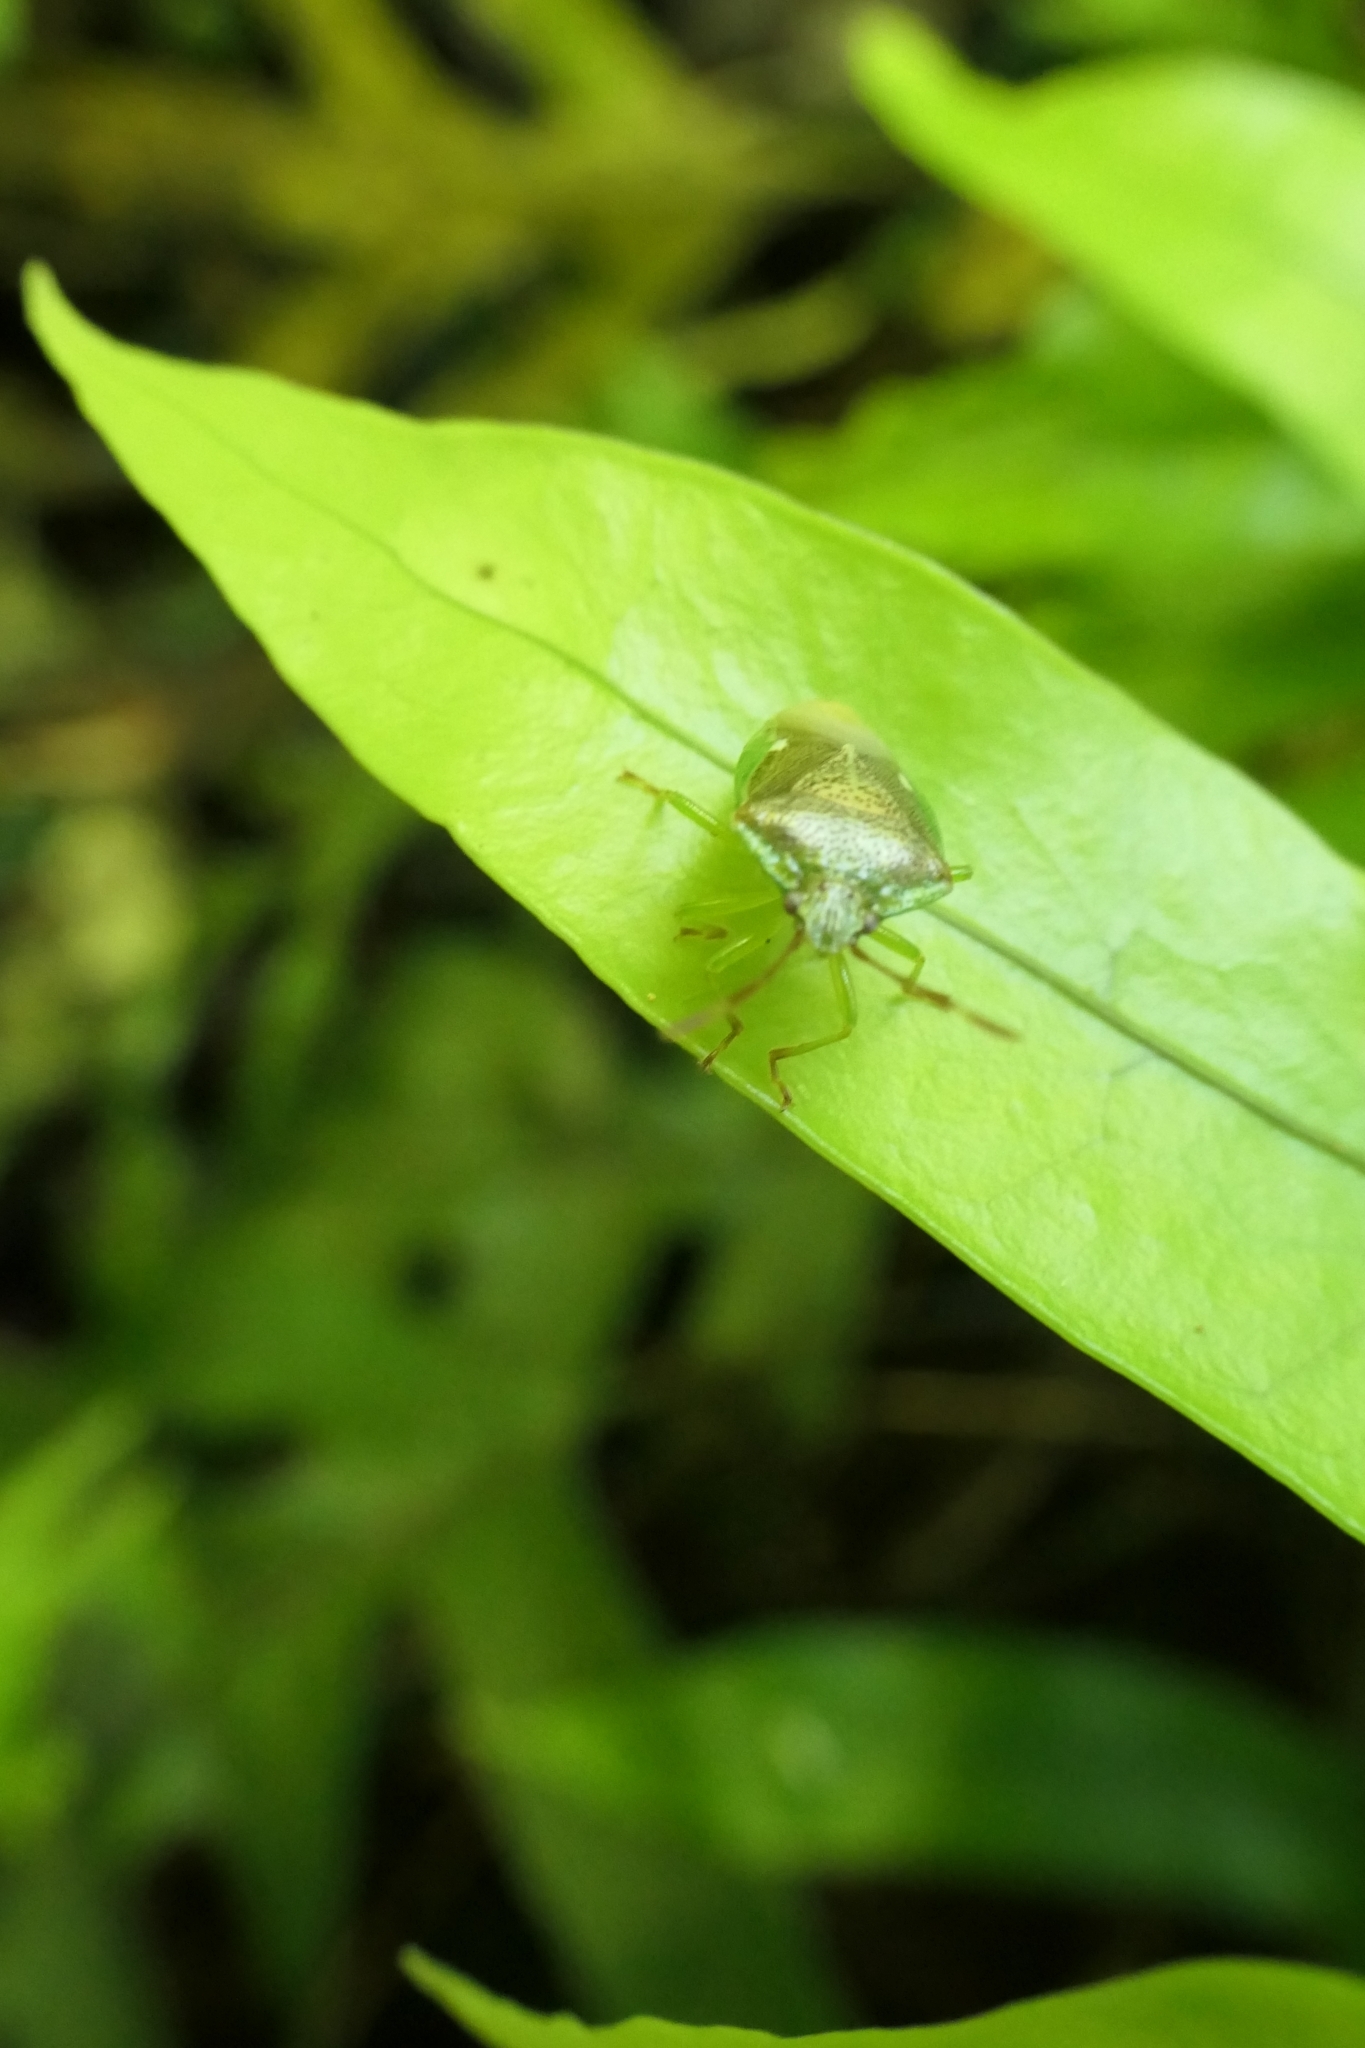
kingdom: Animalia
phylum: Arthropoda
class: Insecta
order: Hemiptera
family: Acanthosomatidae
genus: Oncacontias
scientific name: Oncacontias vittatus
